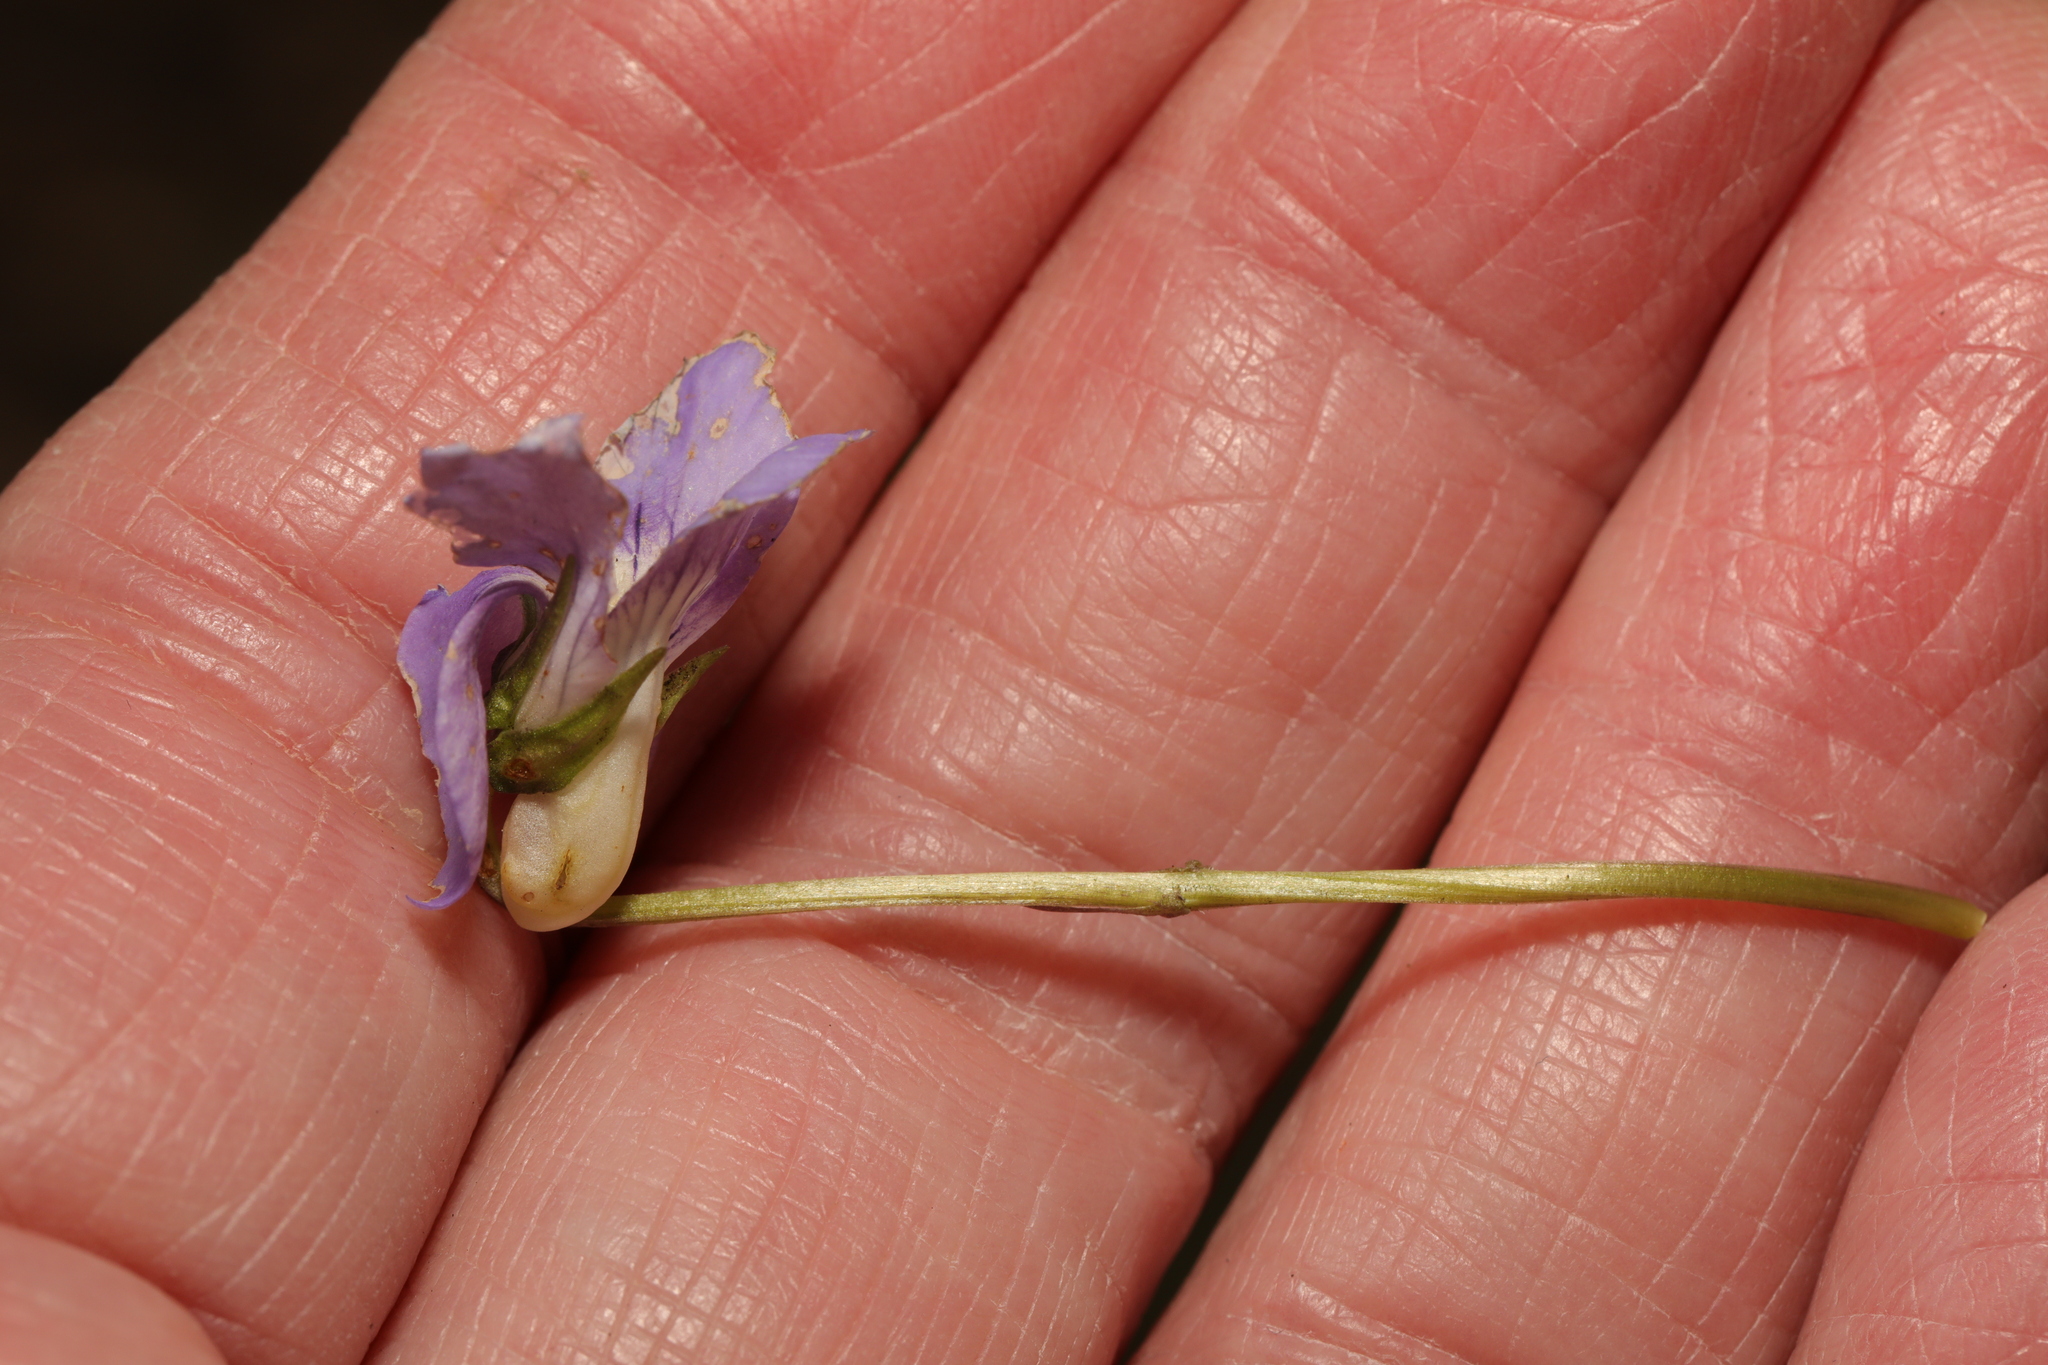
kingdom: Plantae
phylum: Tracheophyta
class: Magnoliopsida
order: Malpighiales
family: Violaceae
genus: Viola
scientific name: Viola riviniana
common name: Common dog-violet
